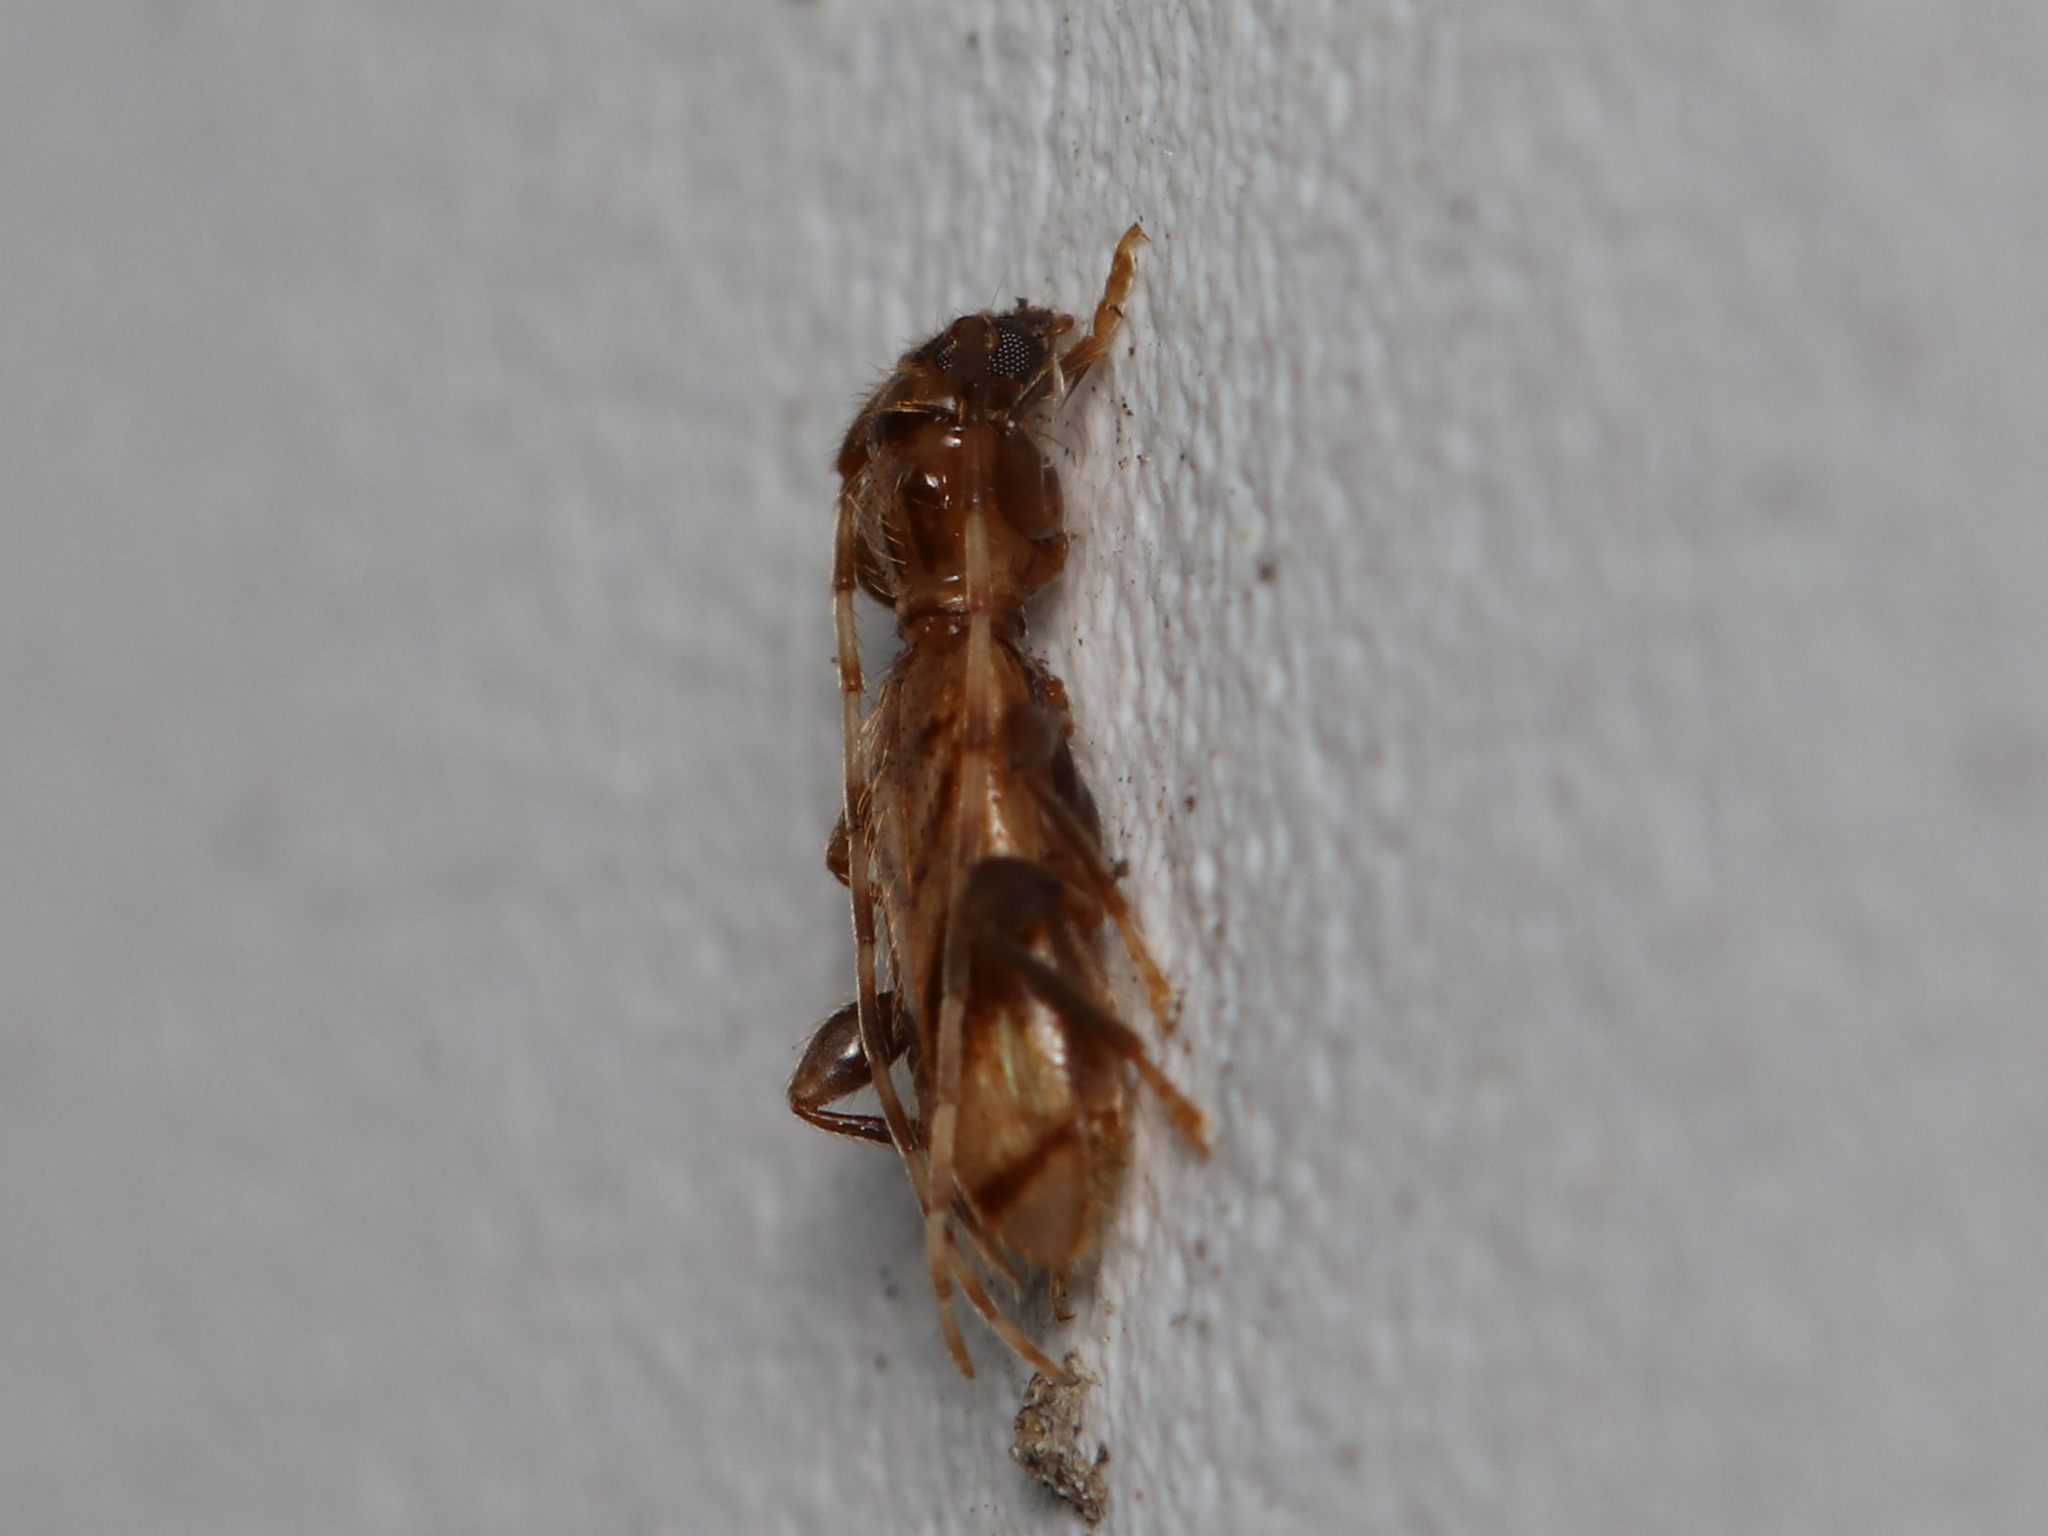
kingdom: Animalia
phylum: Arthropoda
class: Insecta
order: Coleoptera
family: Cerambycidae
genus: Obrium
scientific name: Obrium maculatum
